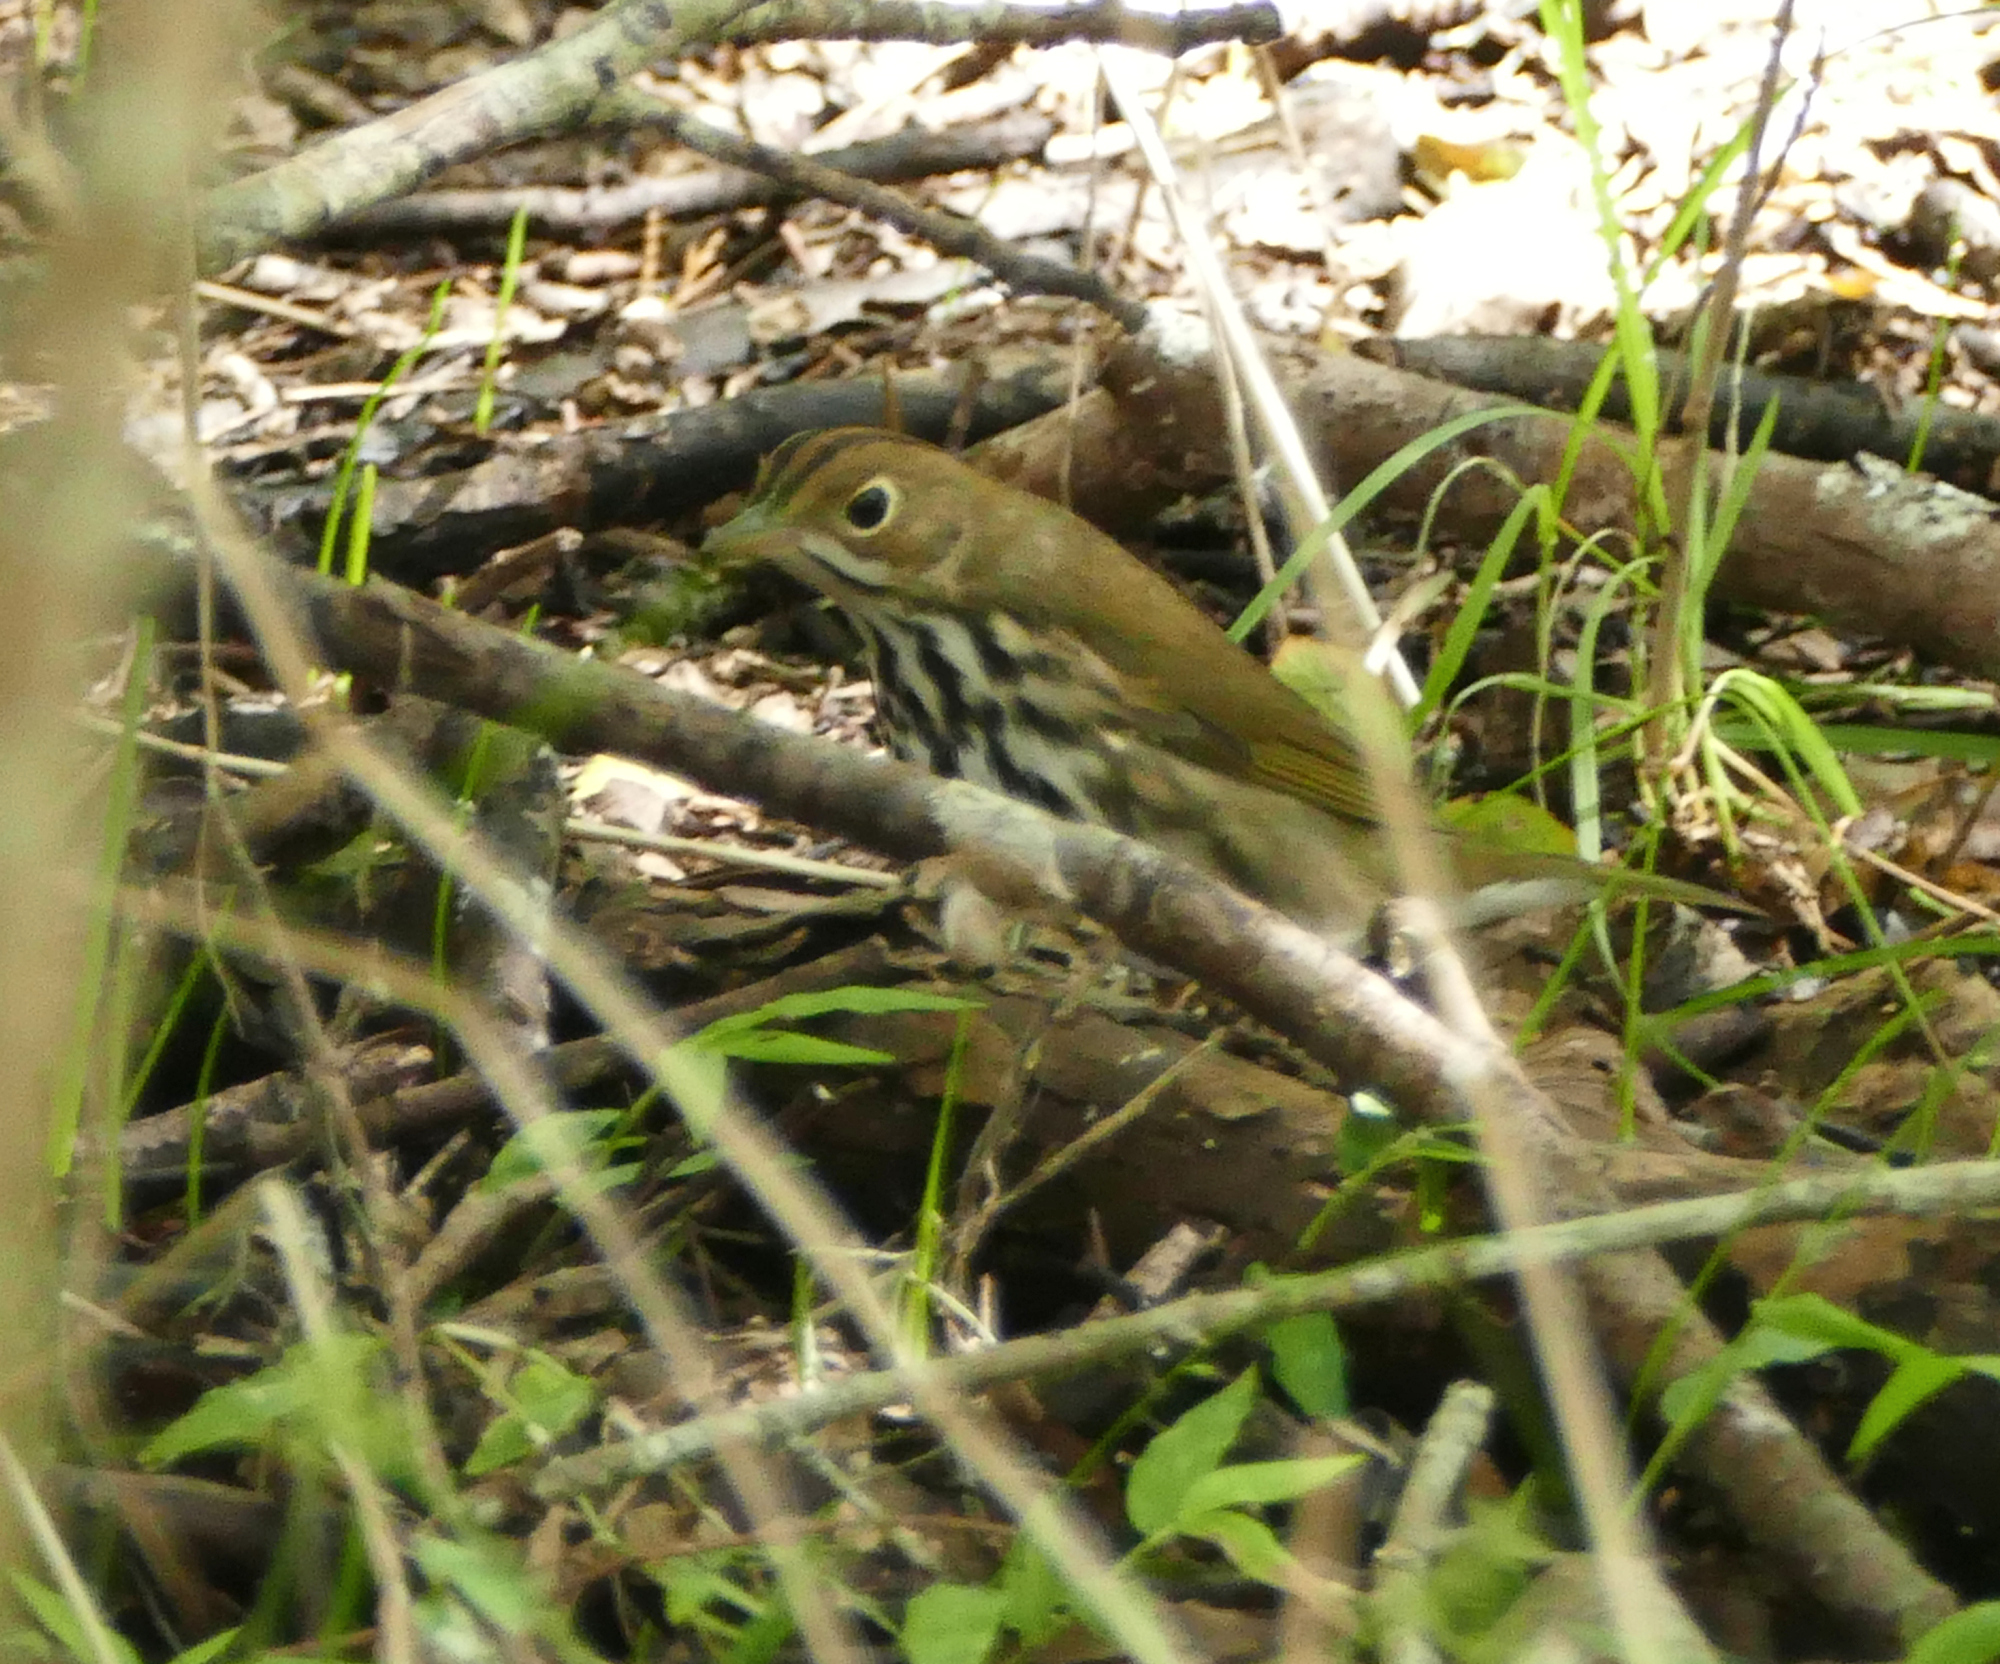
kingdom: Animalia
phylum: Chordata
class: Aves
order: Passeriformes
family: Parulidae
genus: Seiurus
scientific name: Seiurus aurocapilla
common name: Ovenbird
